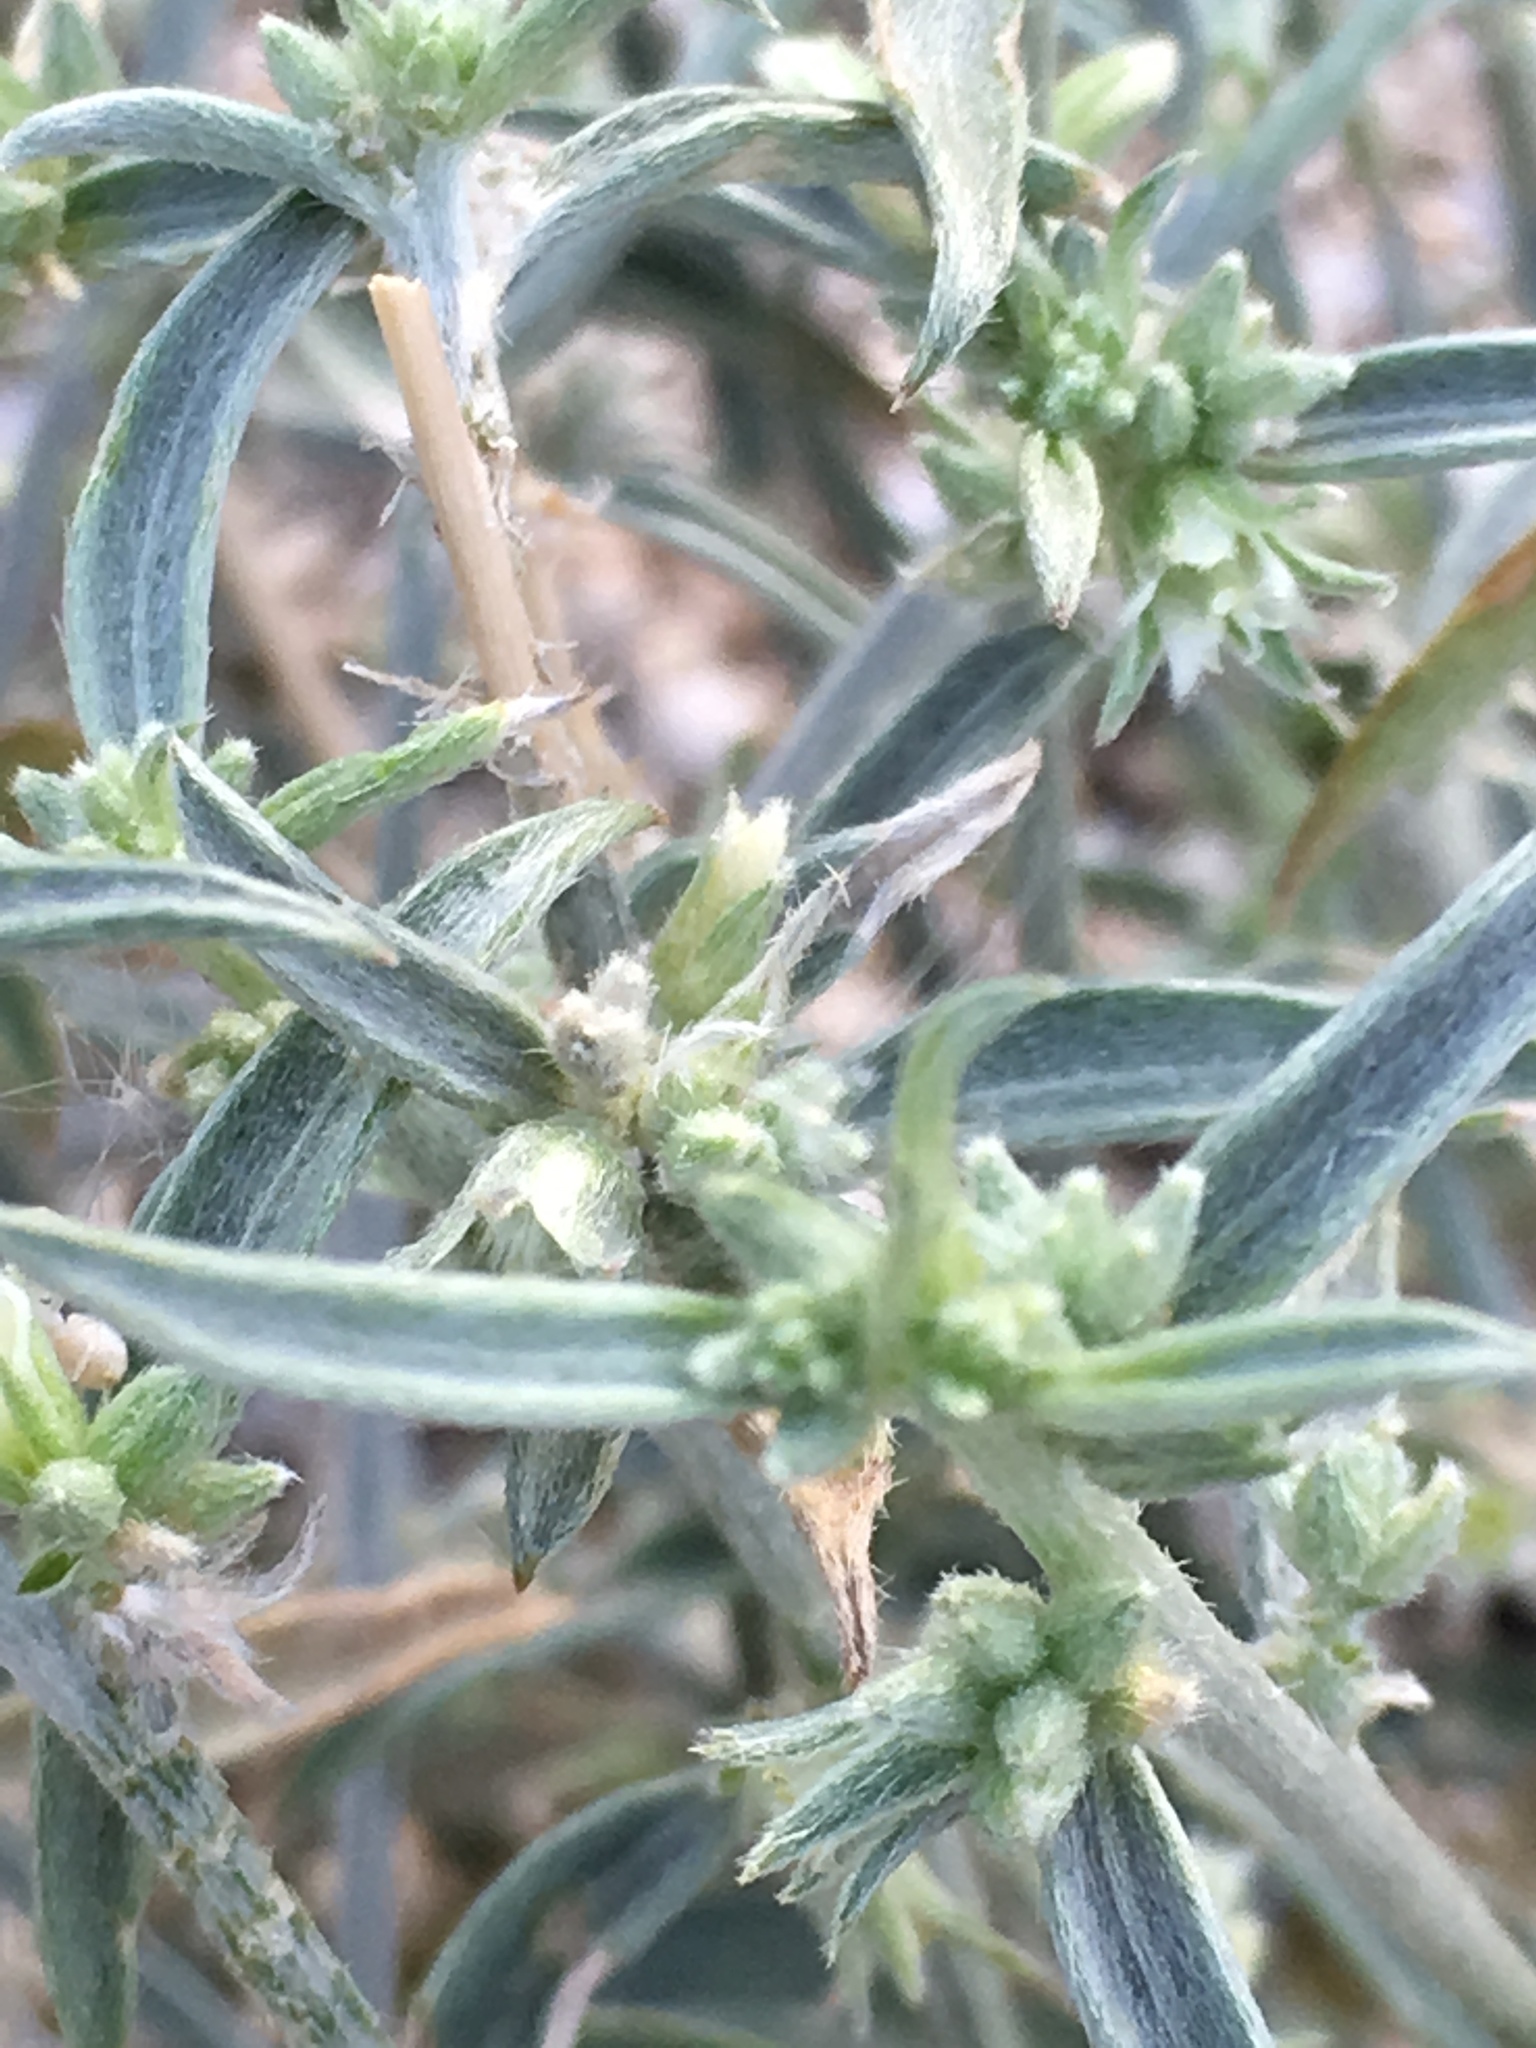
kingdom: Plantae
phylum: Tracheophyta
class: Magnoliopsida
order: Malpighiales
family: Euphorbiaceae
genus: Ditaxis
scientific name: Ditaxis lanceolata
